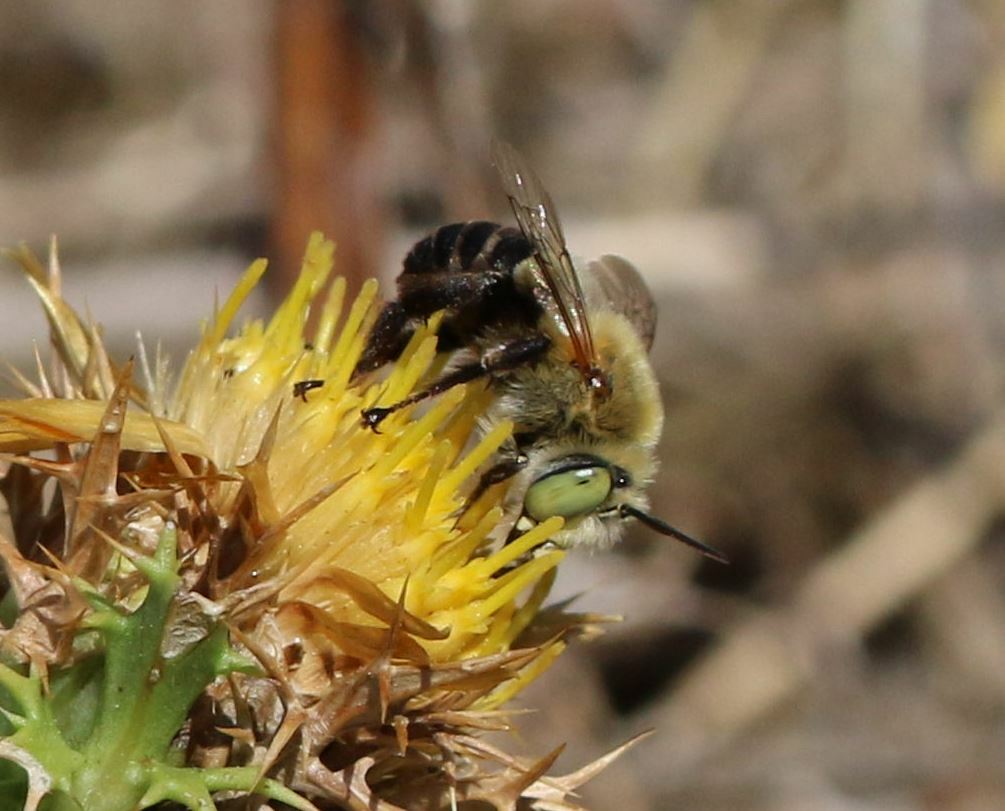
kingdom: Animalia
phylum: Arthropoda
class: Insecta
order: Hymenoptera
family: Apidae
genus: Anthophora
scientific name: Anthophora fulvodimidiata
